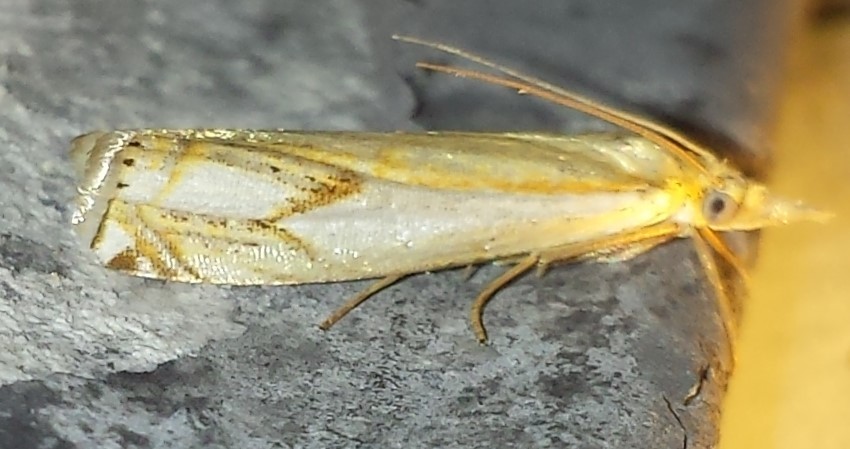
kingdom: Animalia
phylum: Arthropoda
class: Insecta
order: Lepidoptera
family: Crambidae
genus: Crambus
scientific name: Crambus agitatellus
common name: Double-banded grass-veneer
